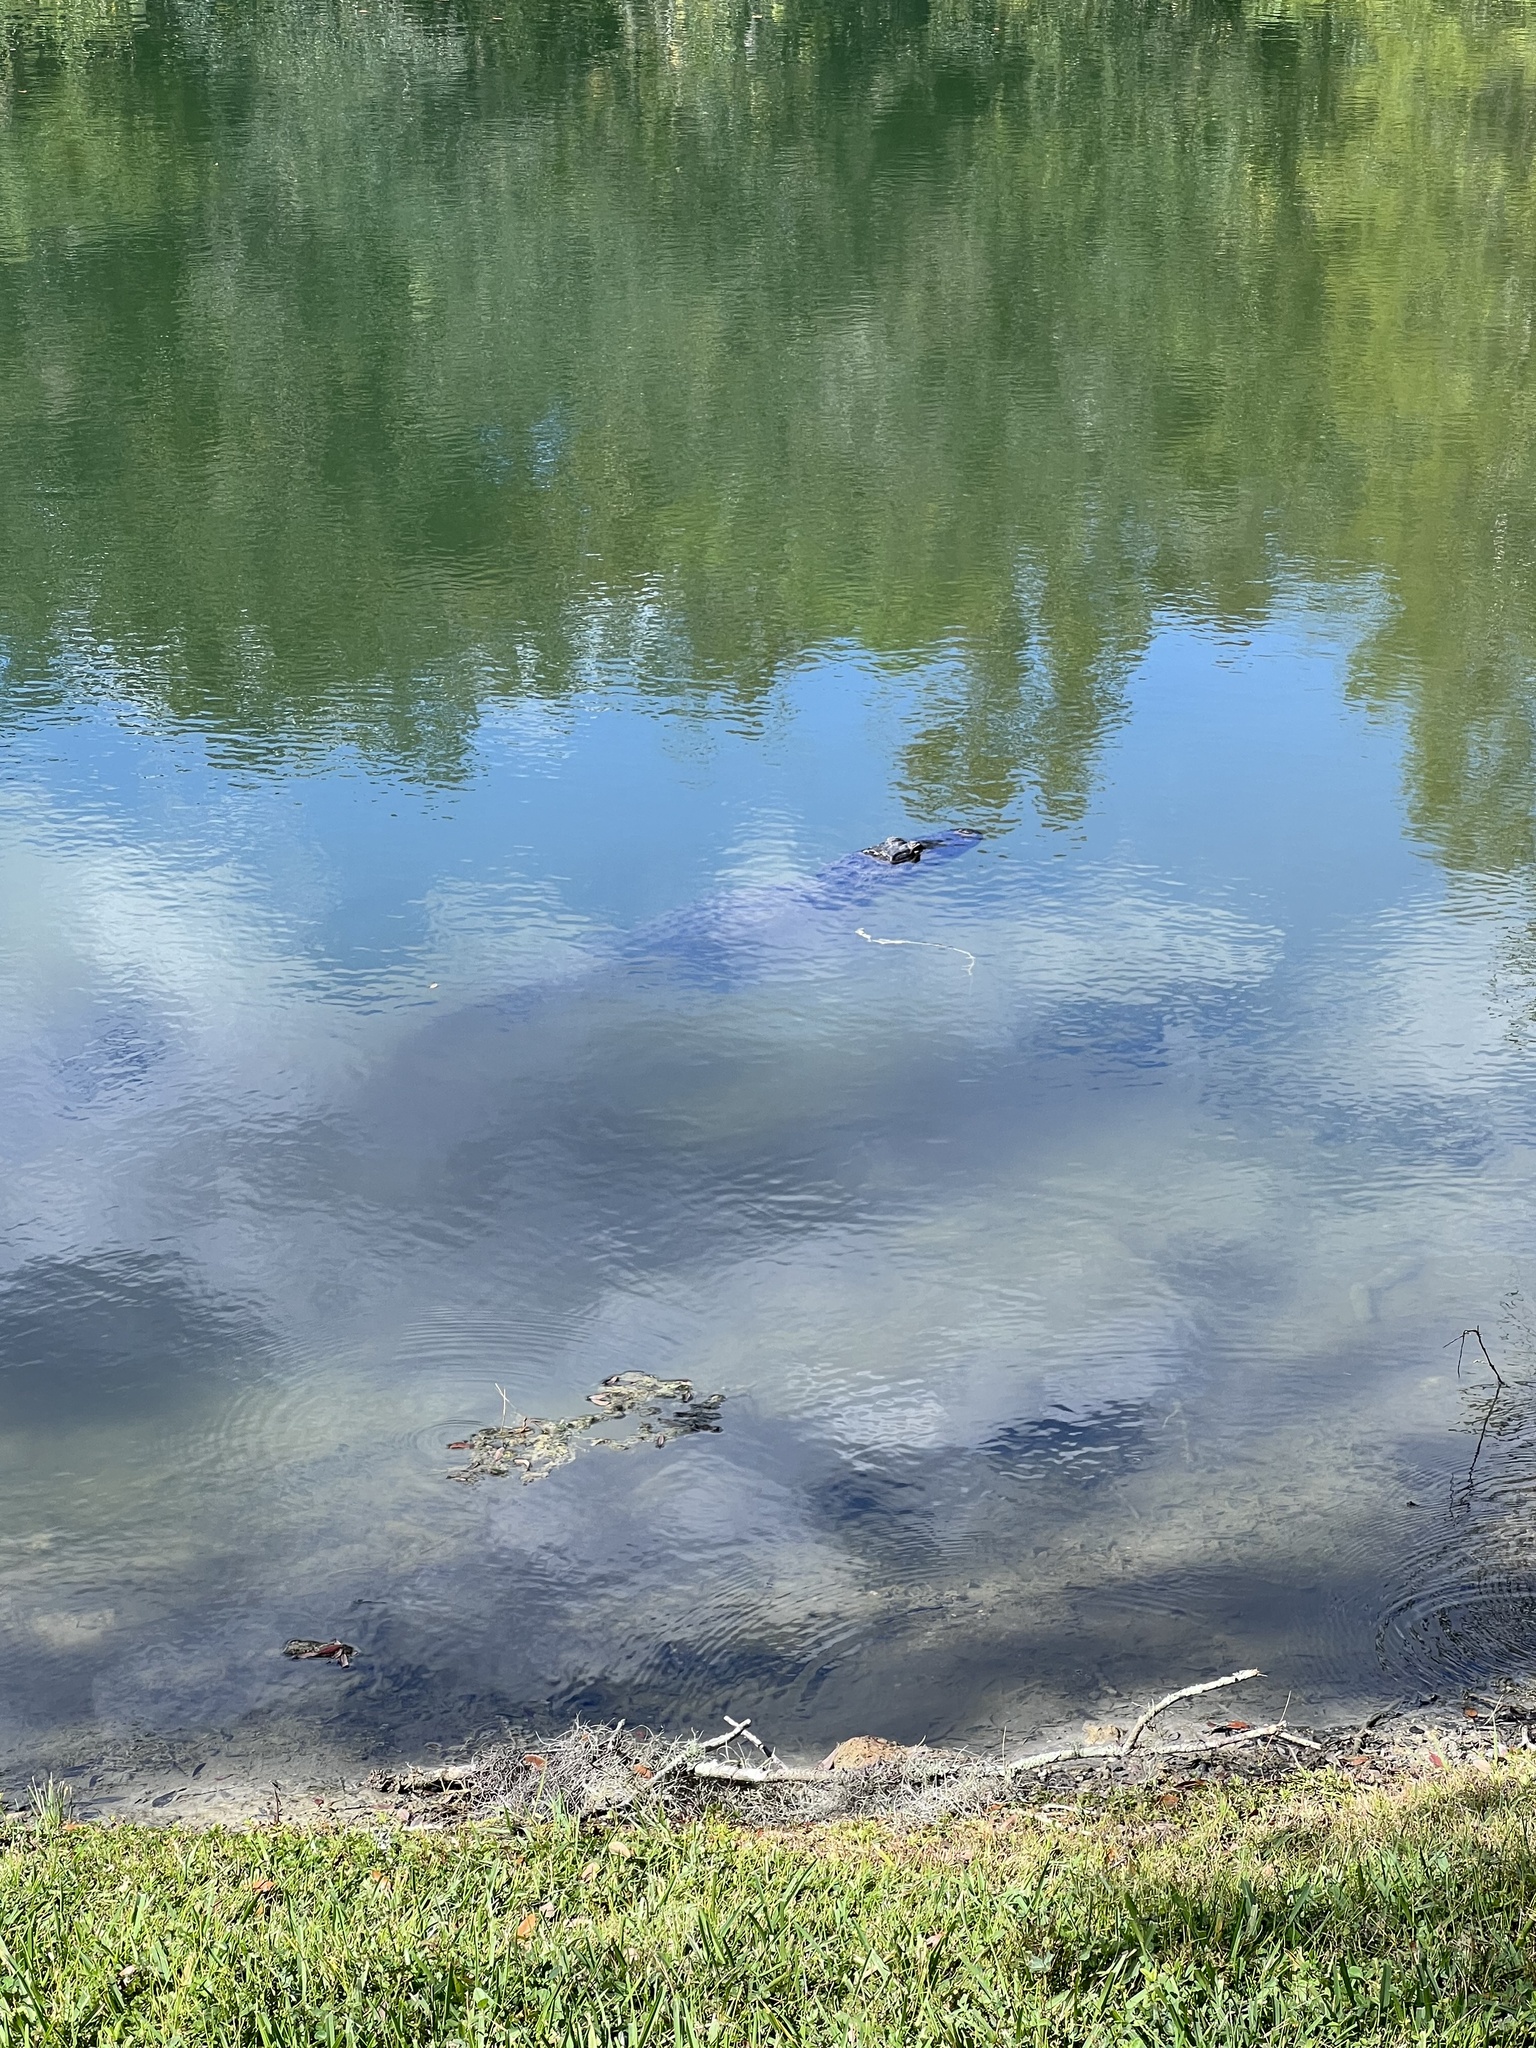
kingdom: Animalia
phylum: Chordata
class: Crocodylia
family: Alligatoridae
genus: Alligator
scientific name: Alligator mississippiensis
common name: American alligator
